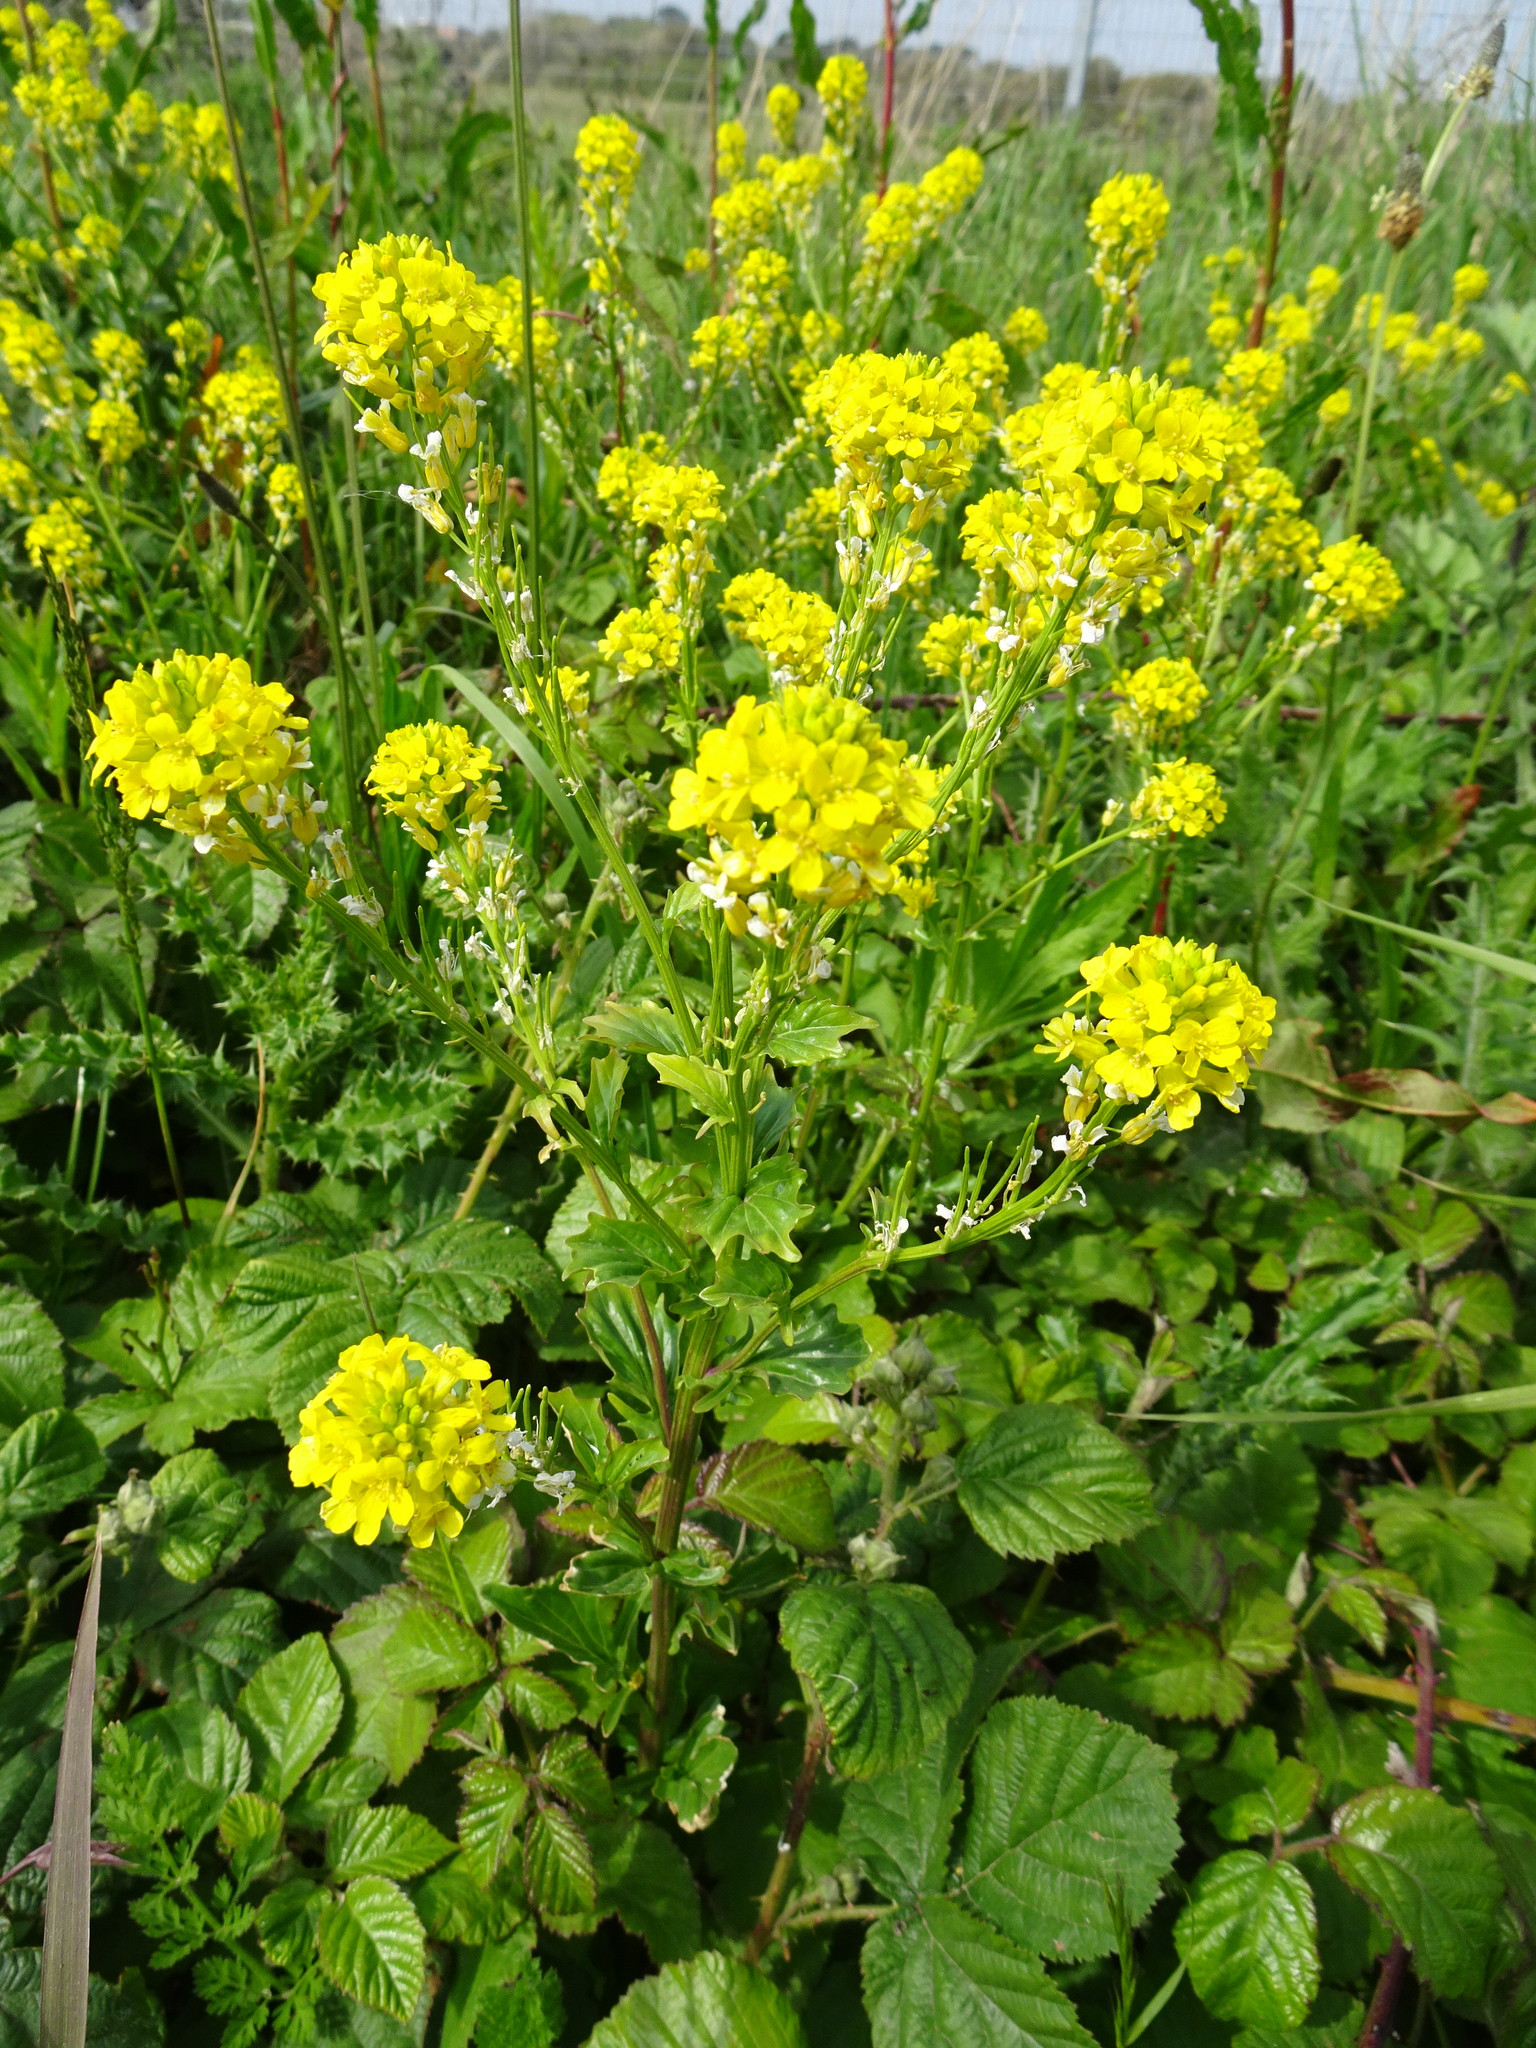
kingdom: Plantae
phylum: Tracheophyta
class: Magnoliopsida
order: Brassicales
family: Brassicaceae
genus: Barbarea
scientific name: Barbarea vulgaris
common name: Cressy-greens
